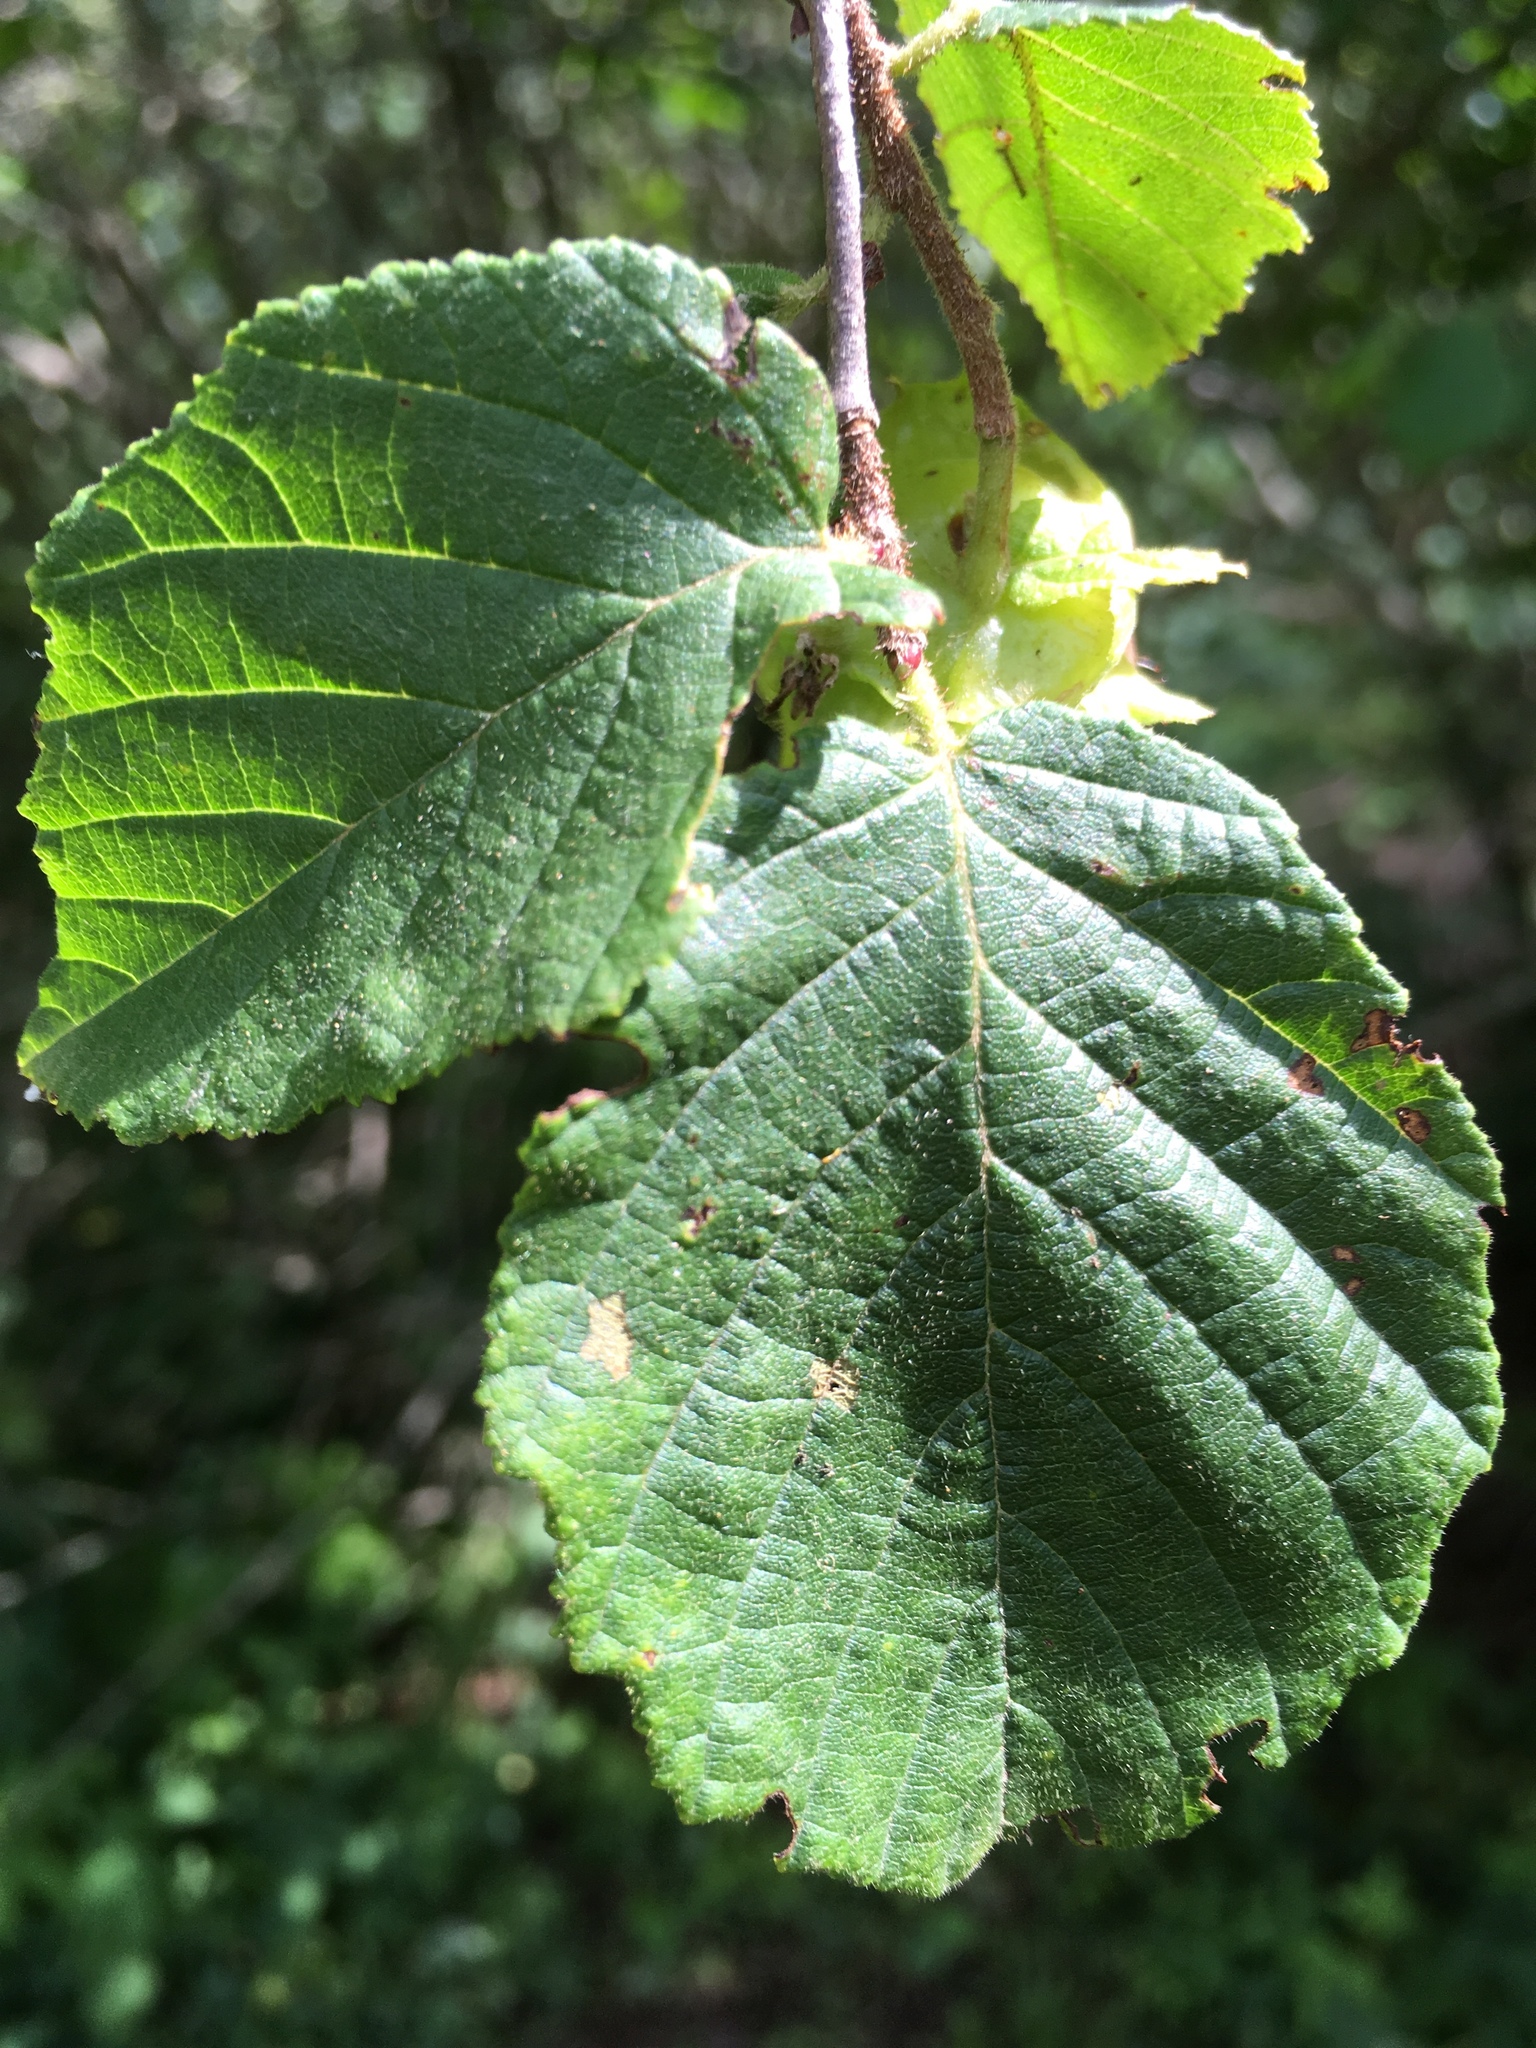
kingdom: Plantae
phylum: Tracheophyta
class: Magnoliopsida
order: Fagales
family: Betulaceae
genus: Corylus
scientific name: Corylus americana
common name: American hazel
